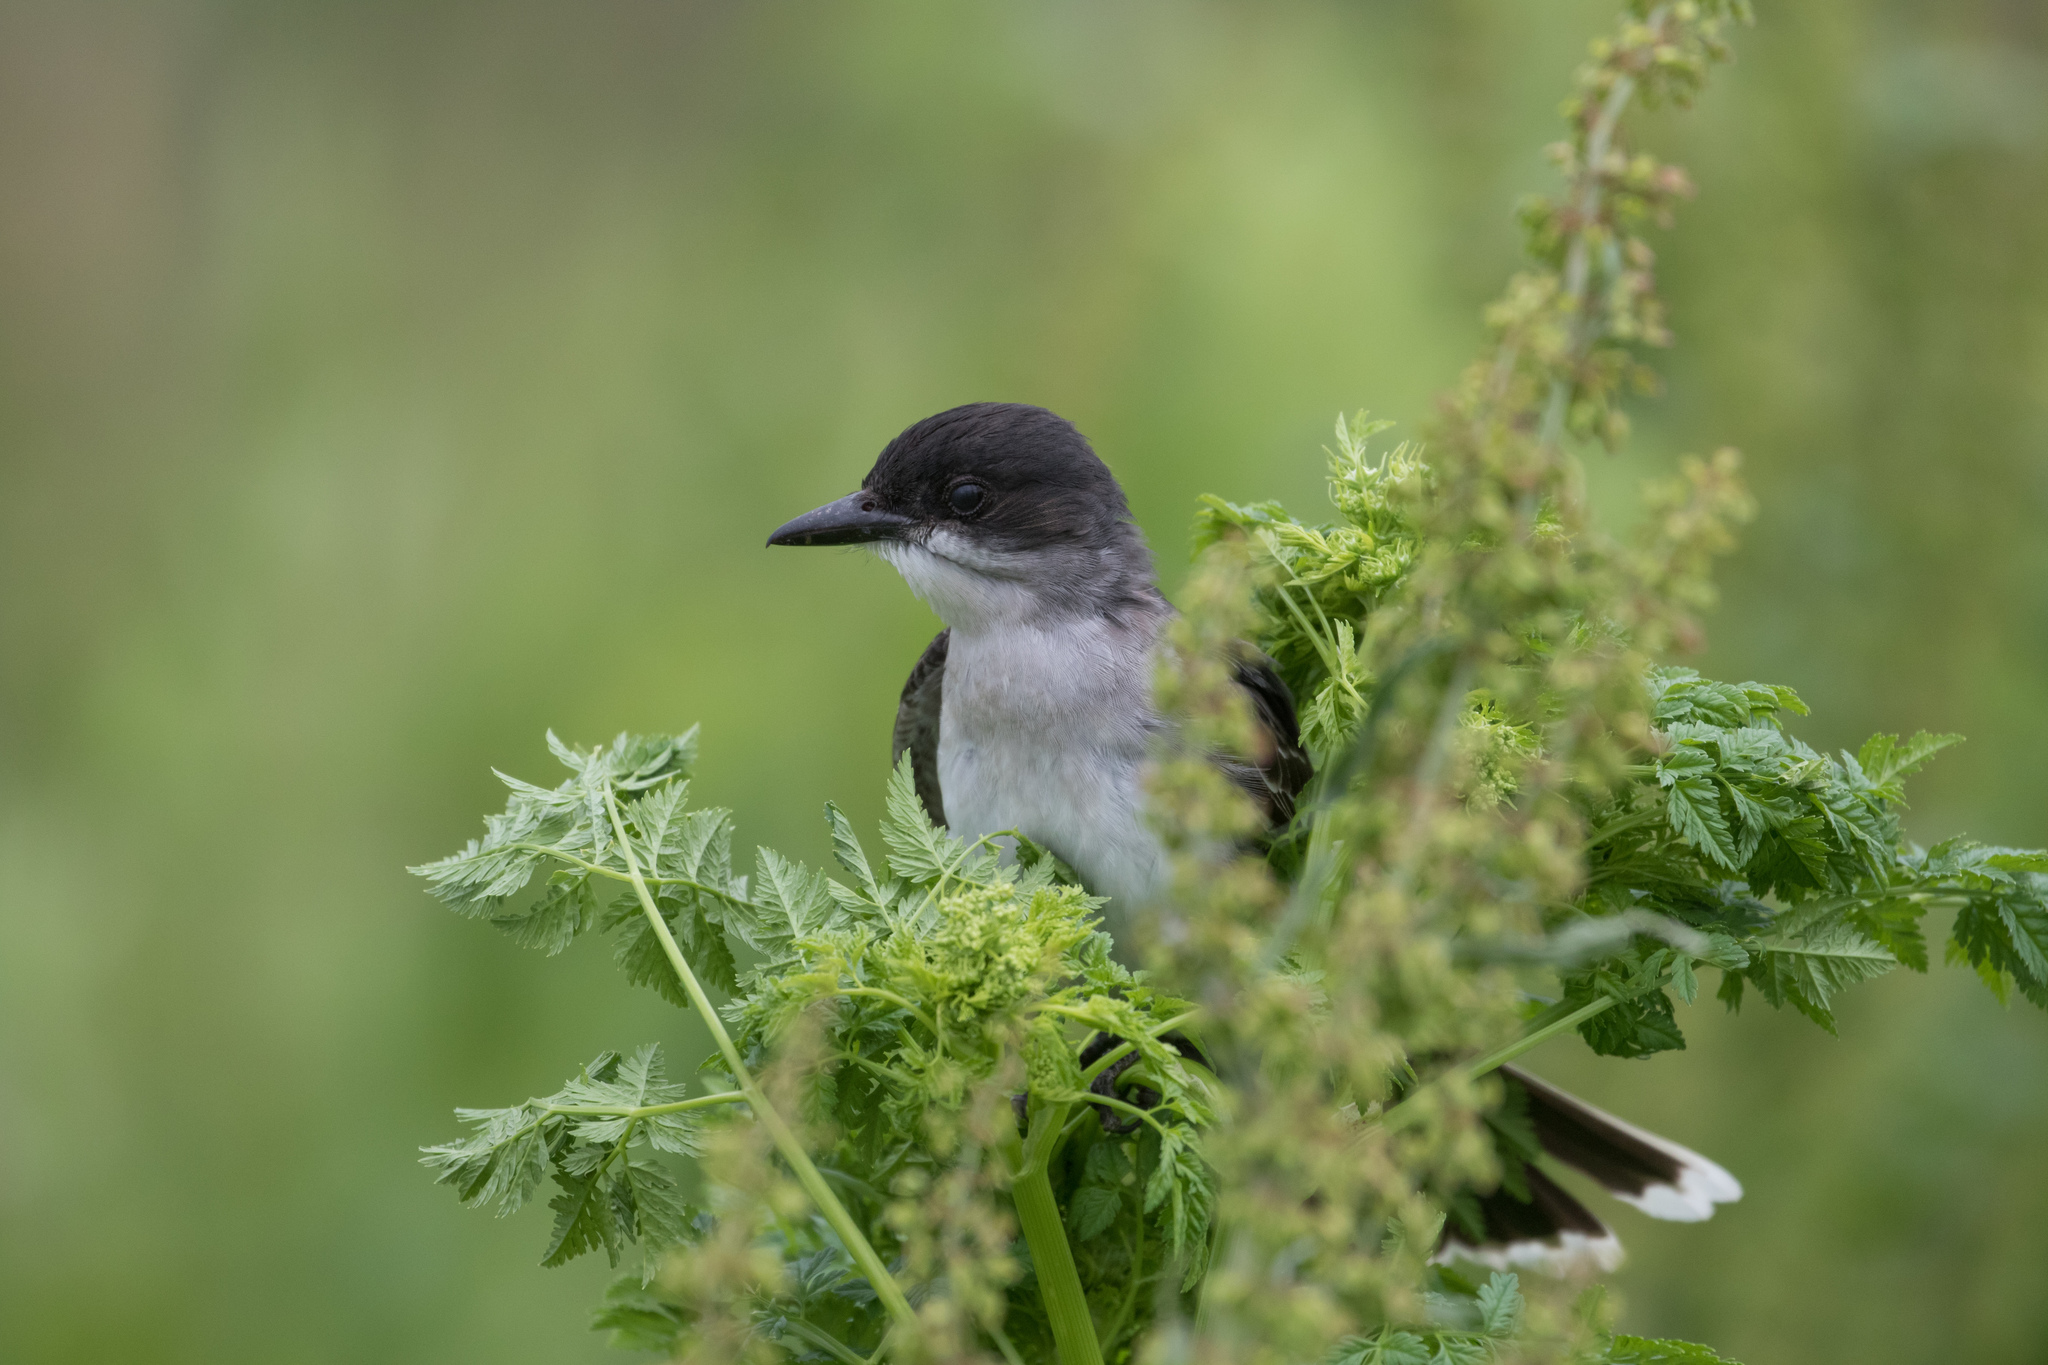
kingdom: Animalia
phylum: Chordata
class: Aves
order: Passeriformes
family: Tyrannidae
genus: Tyrannus
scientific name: Tyrannus tyrannus
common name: Eastern kingbird
